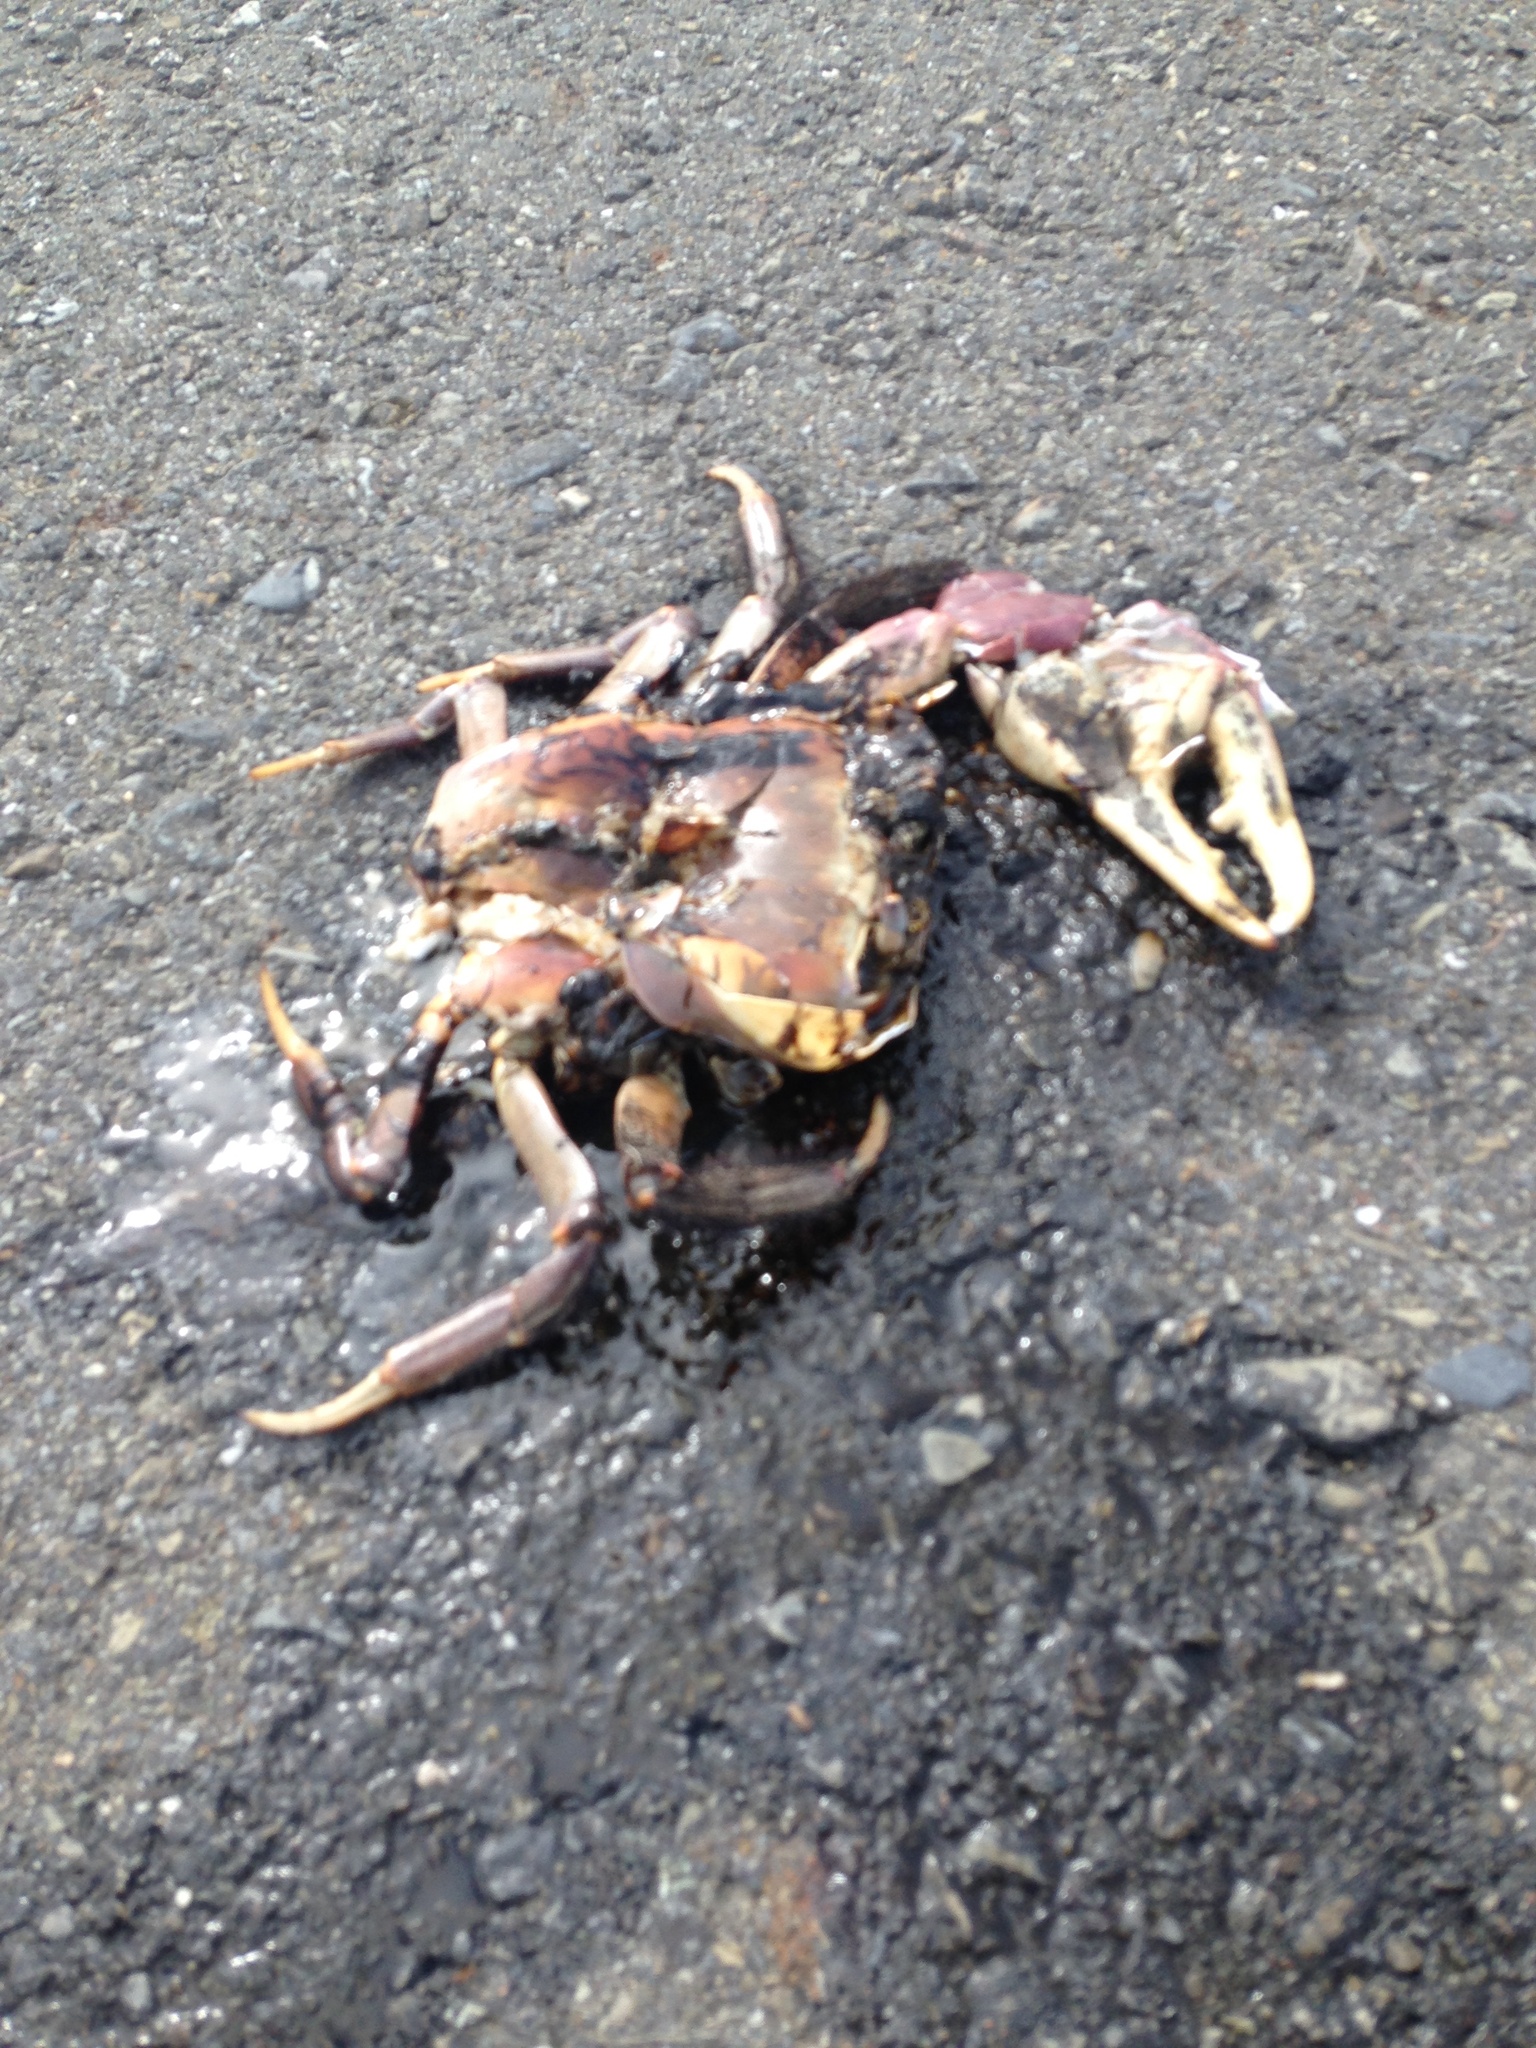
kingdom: Animalia
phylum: Arthropoda
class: Malacostraca
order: Decapoda
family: Gecarcinidae
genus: Cardisoma
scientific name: Cardisoma carnifex
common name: Brown land crab
